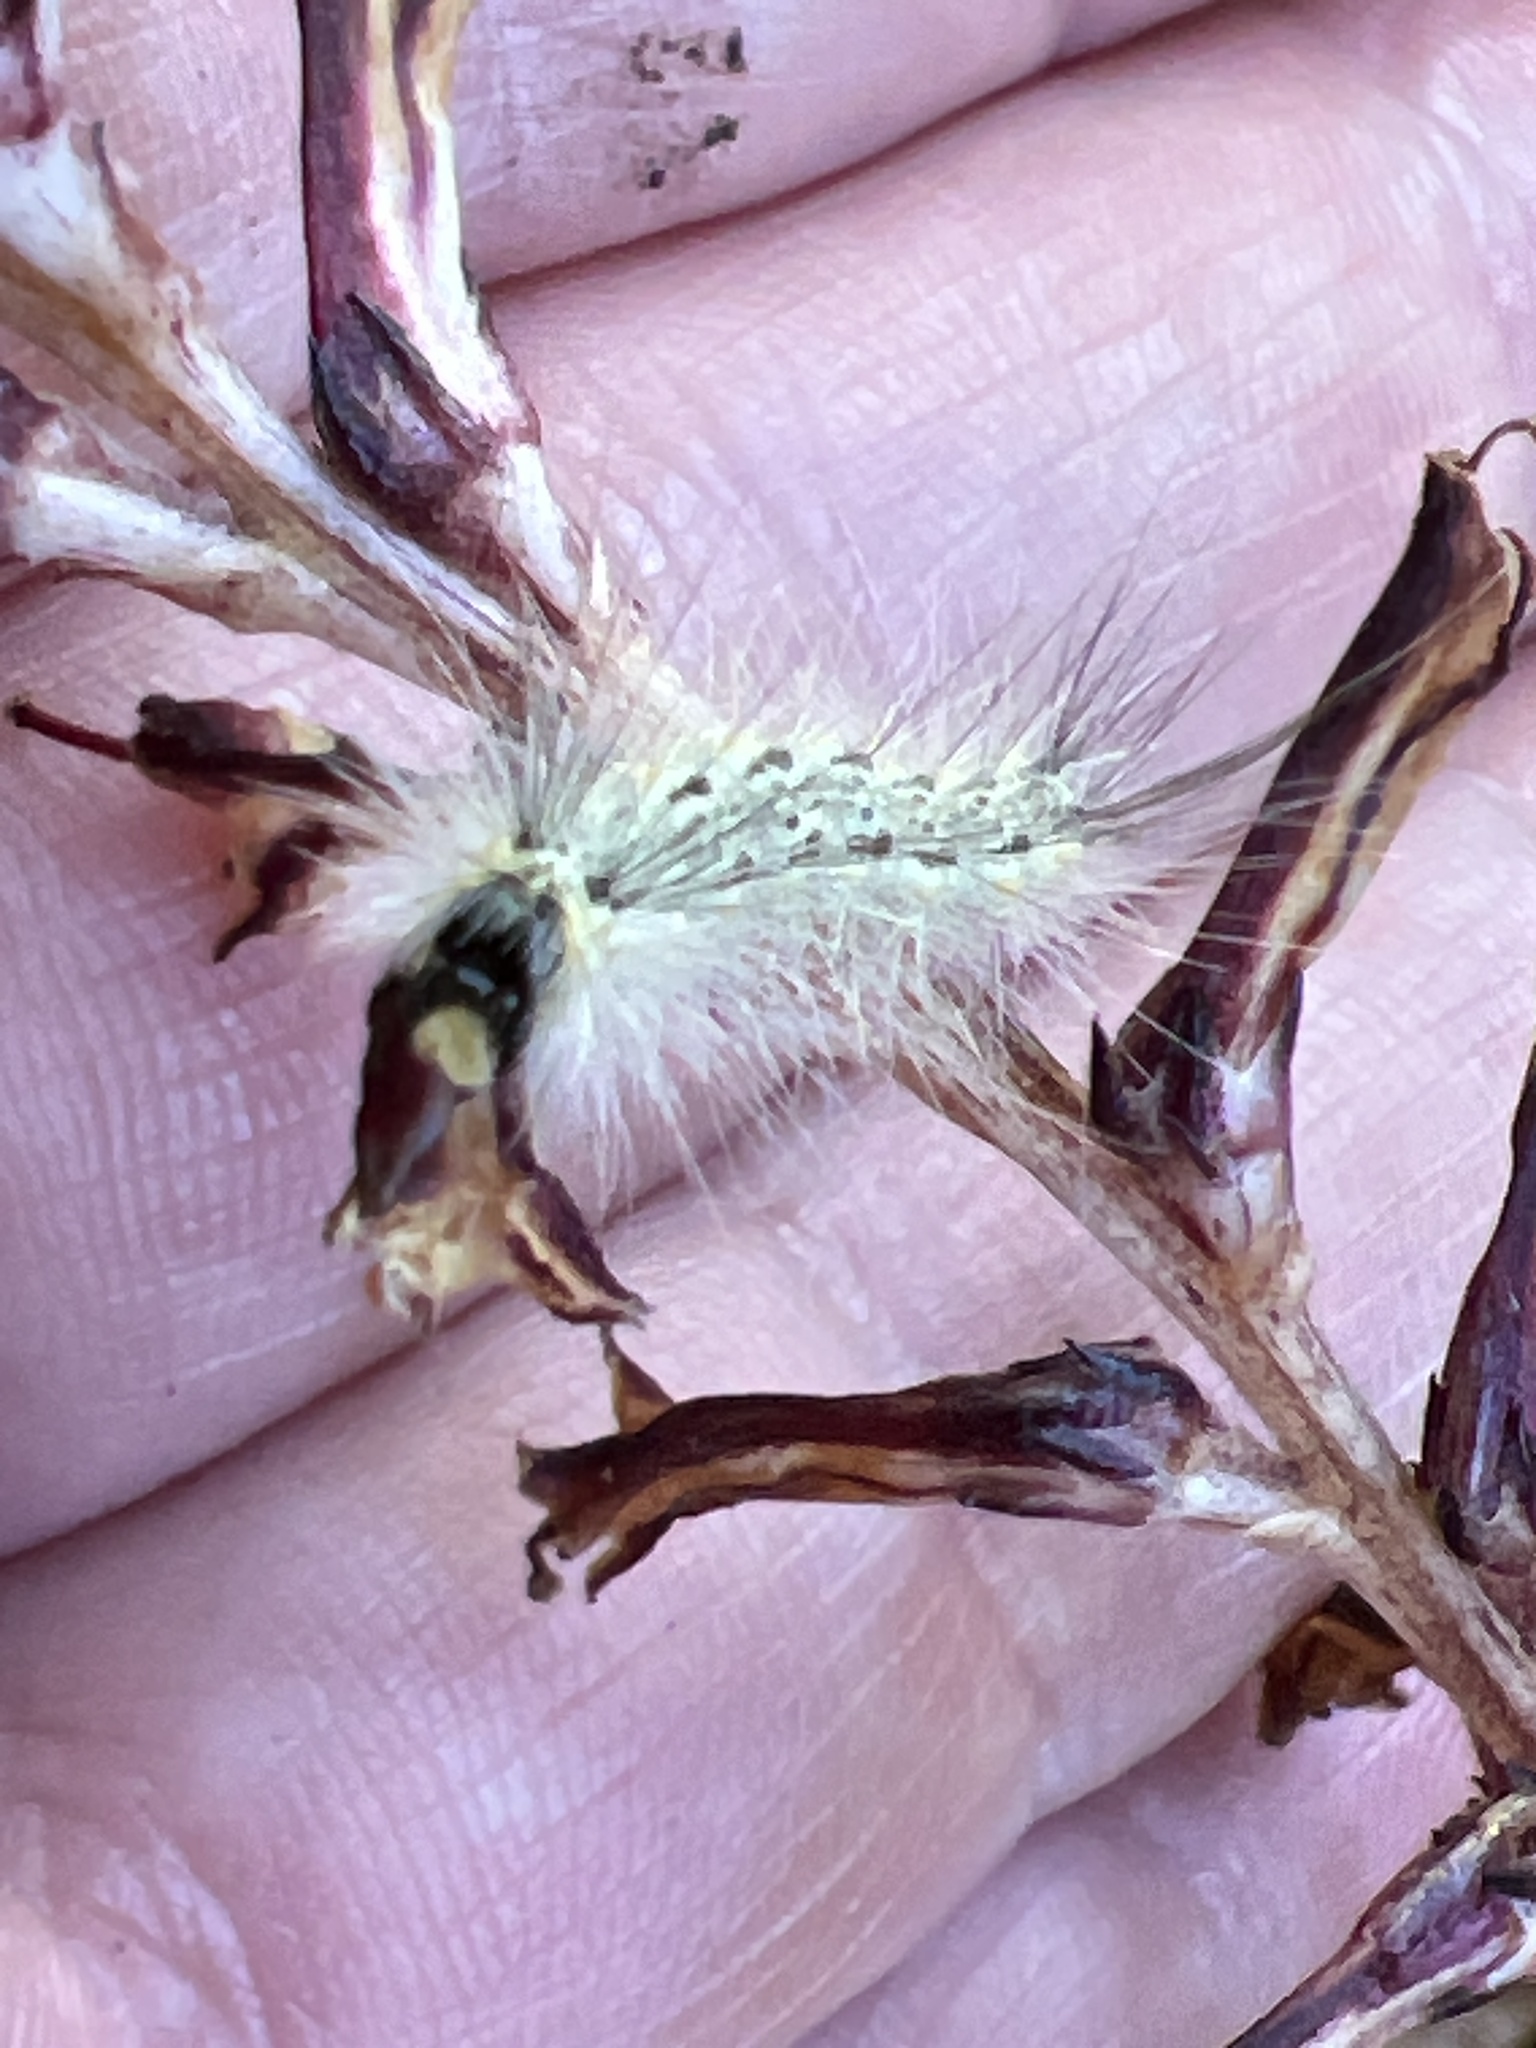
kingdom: Animalia
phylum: Arthropoda
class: Insecta
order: Lepidoptera
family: Erebidae
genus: Hyphantria
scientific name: Hyphantria cunea
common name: American white moth
